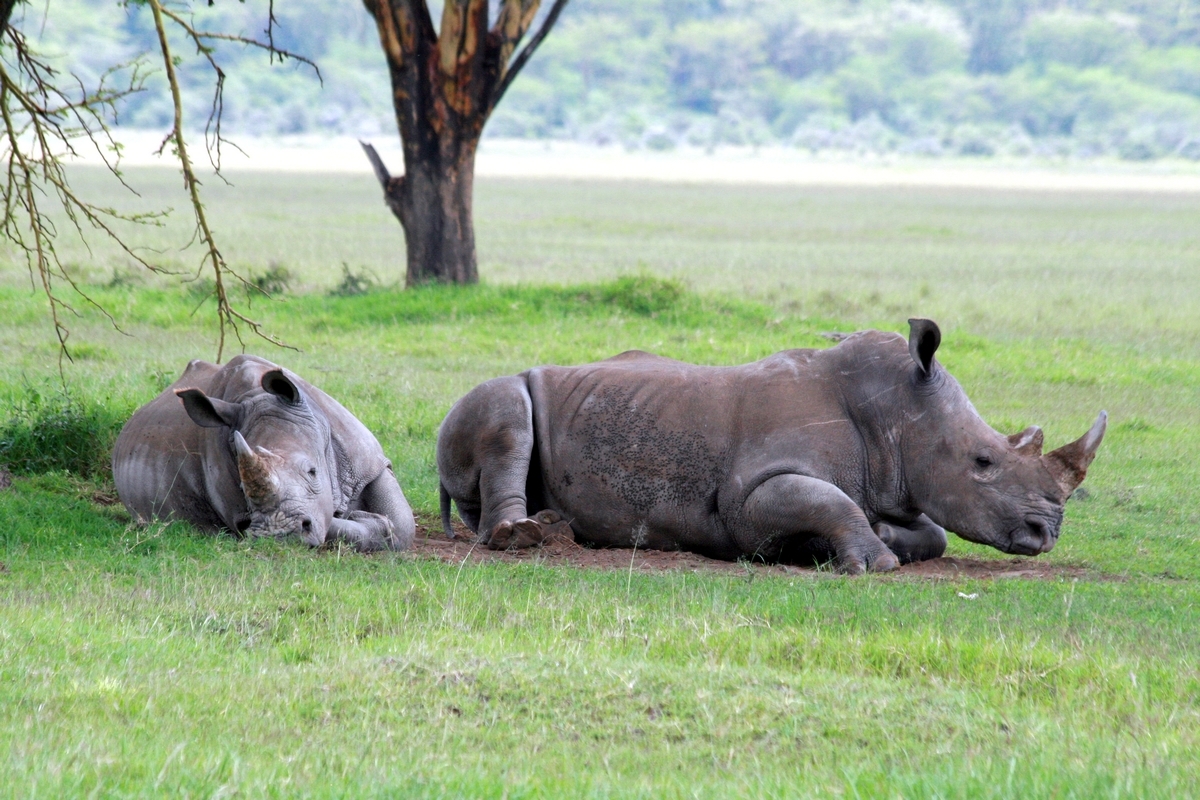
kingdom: Animalia
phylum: Chordata
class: Mammalia
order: Perissodactyla
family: Rhinocerotidae
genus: Ceratotherium
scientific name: Ceratotherium simum
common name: White rhinoceros
